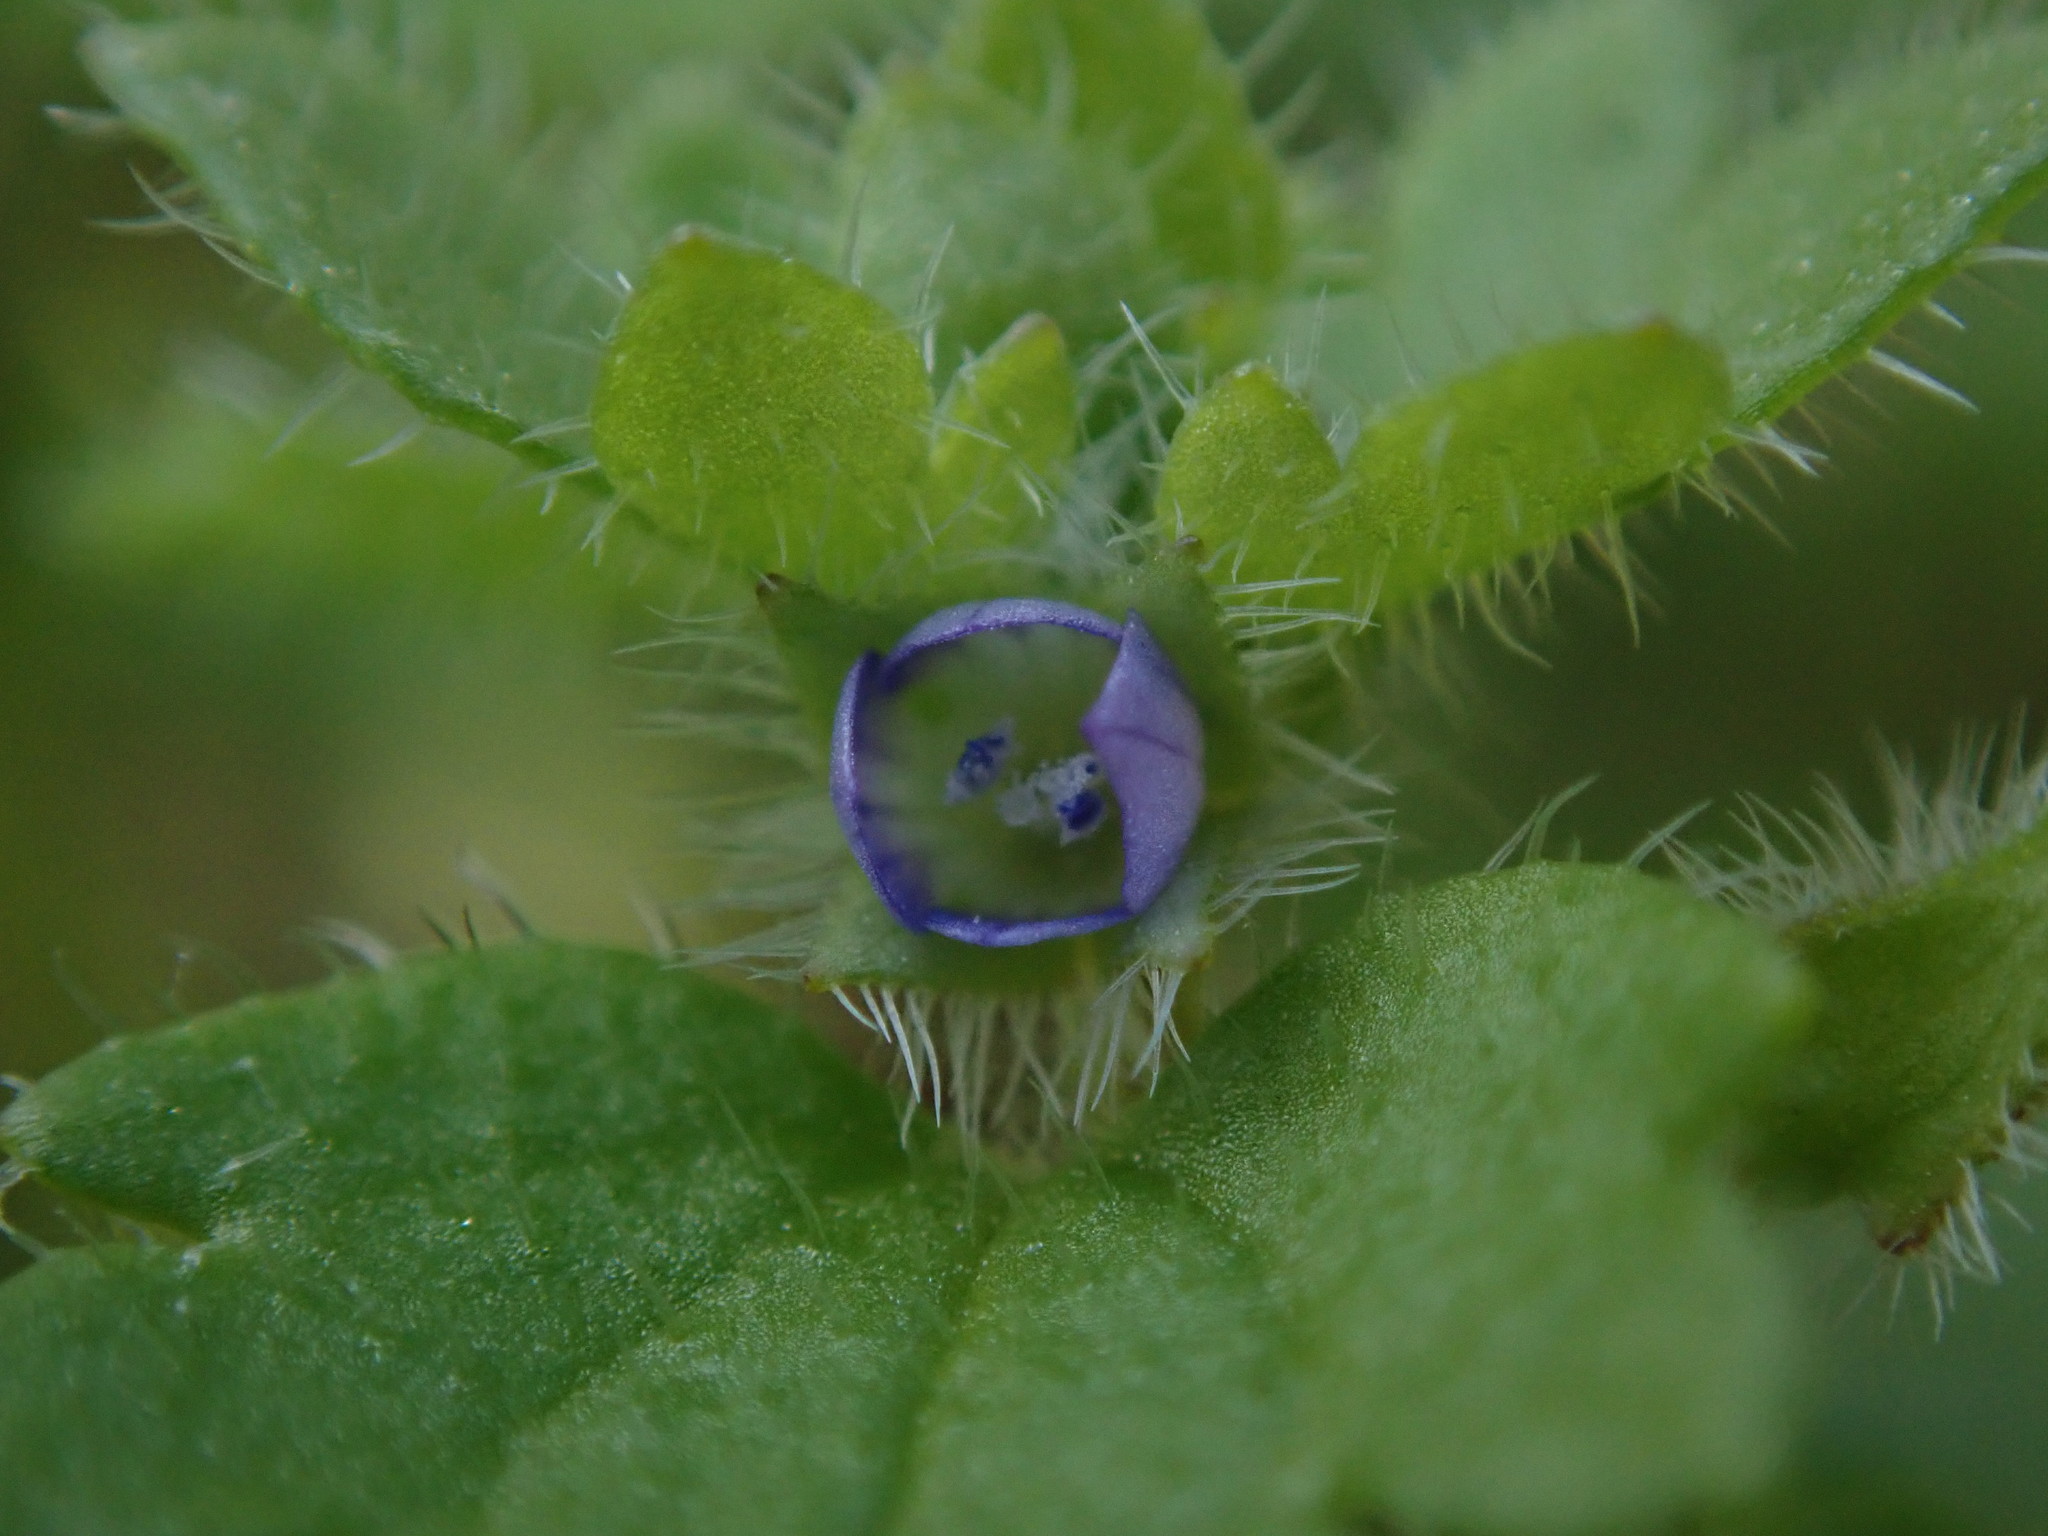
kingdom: Plantae
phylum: Tracheophyta
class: Magnoliopsida
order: Lamiales
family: Plantaginaceae
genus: Veronica
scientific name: Veronica hederifolia
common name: Ivy-leaved speedwell
